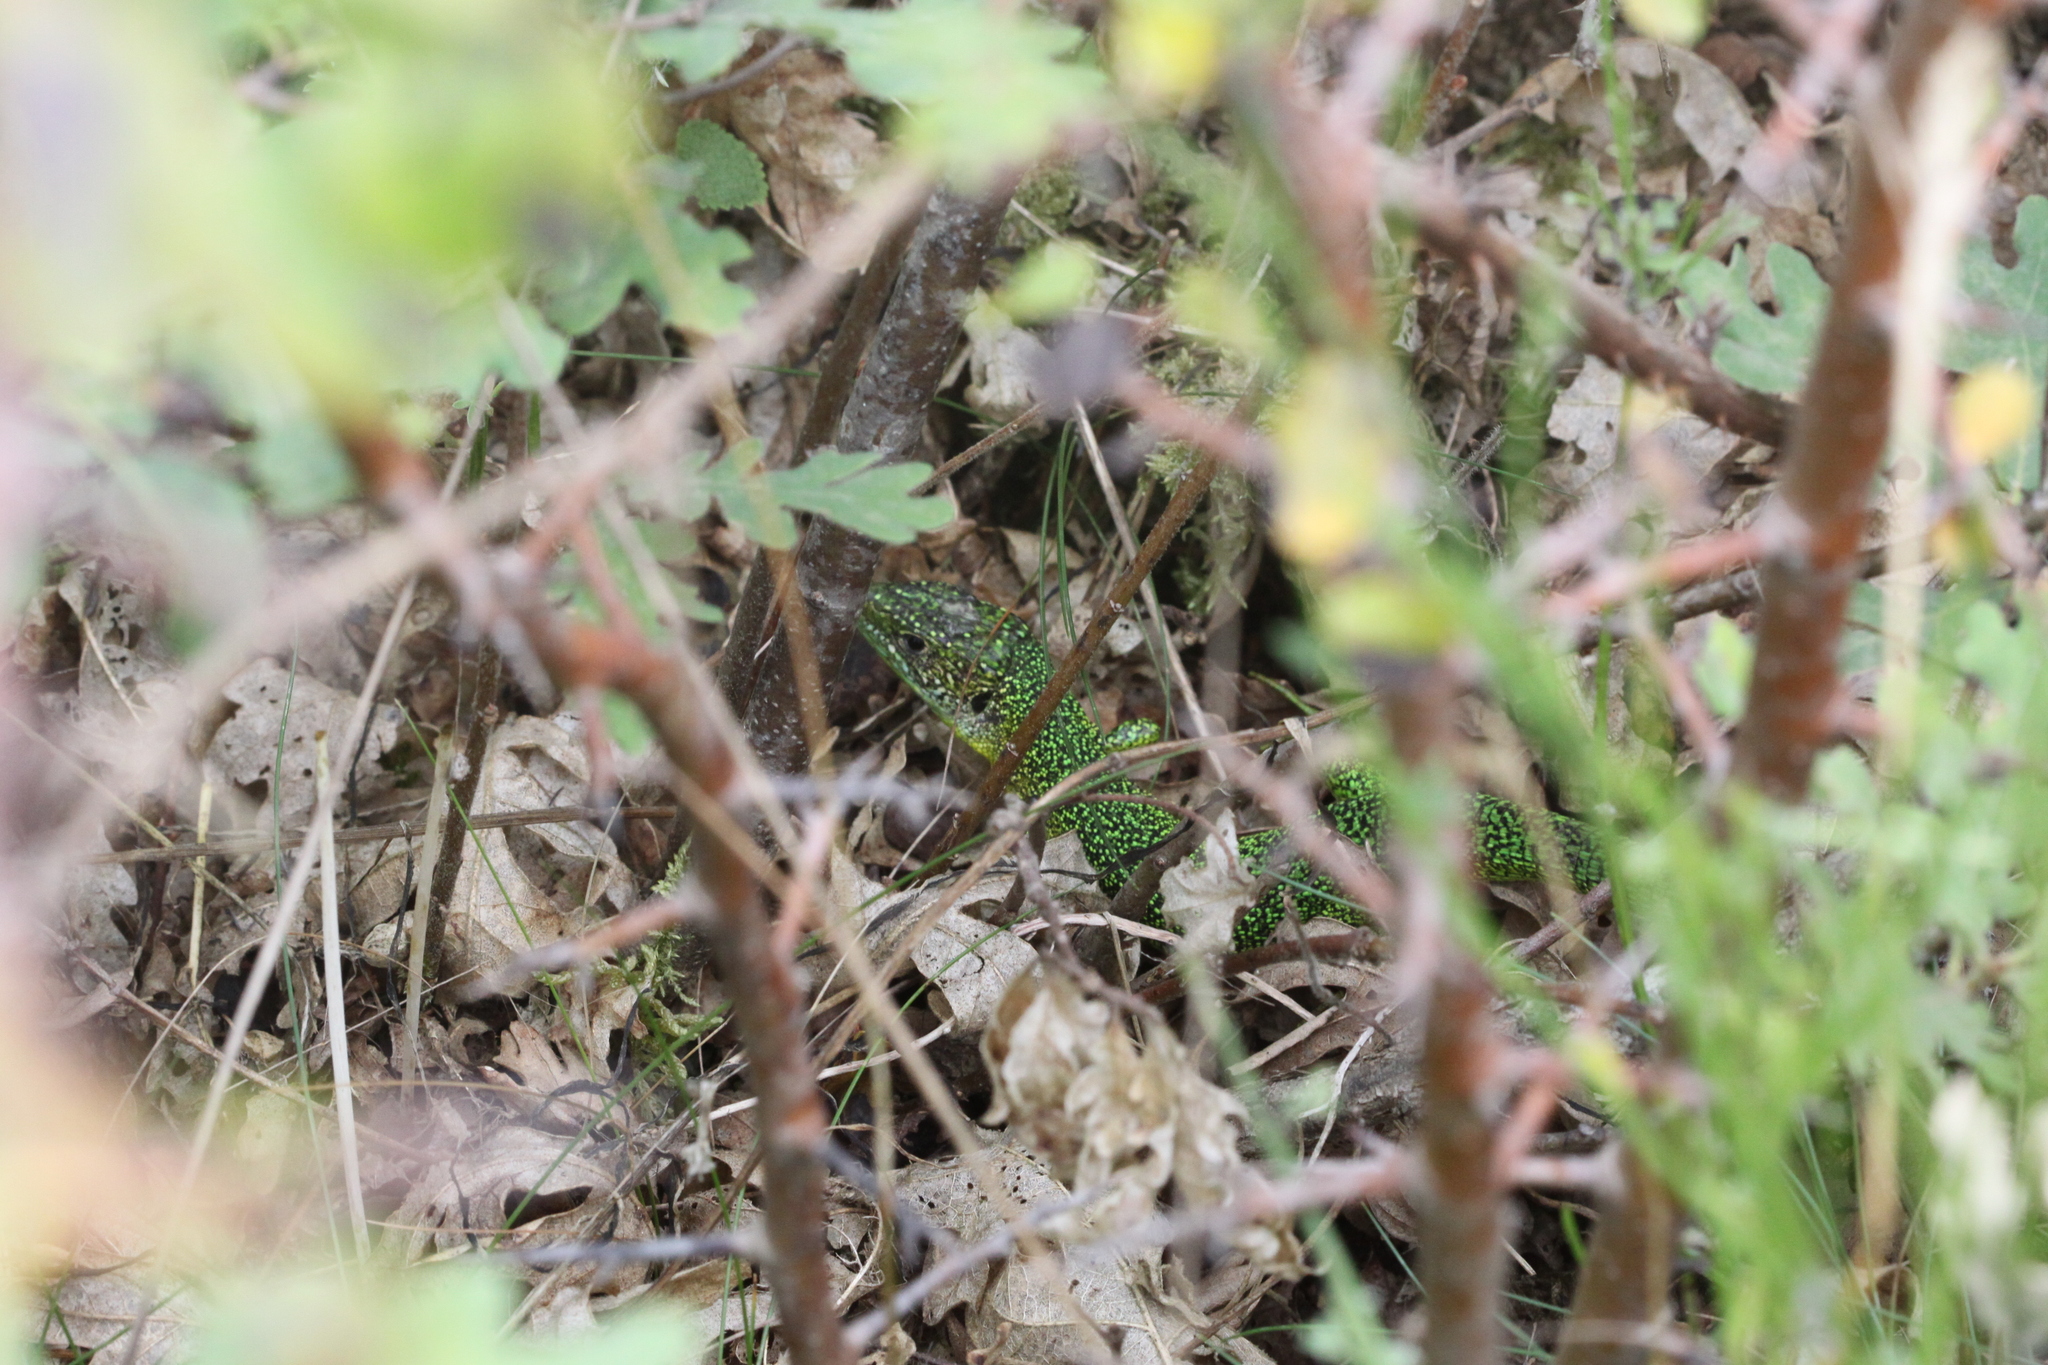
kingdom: Animalia
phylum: Chordata
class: Squamata
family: Lacertidae
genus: Lacerta
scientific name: Lacerta bilineata
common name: Western green lizard
